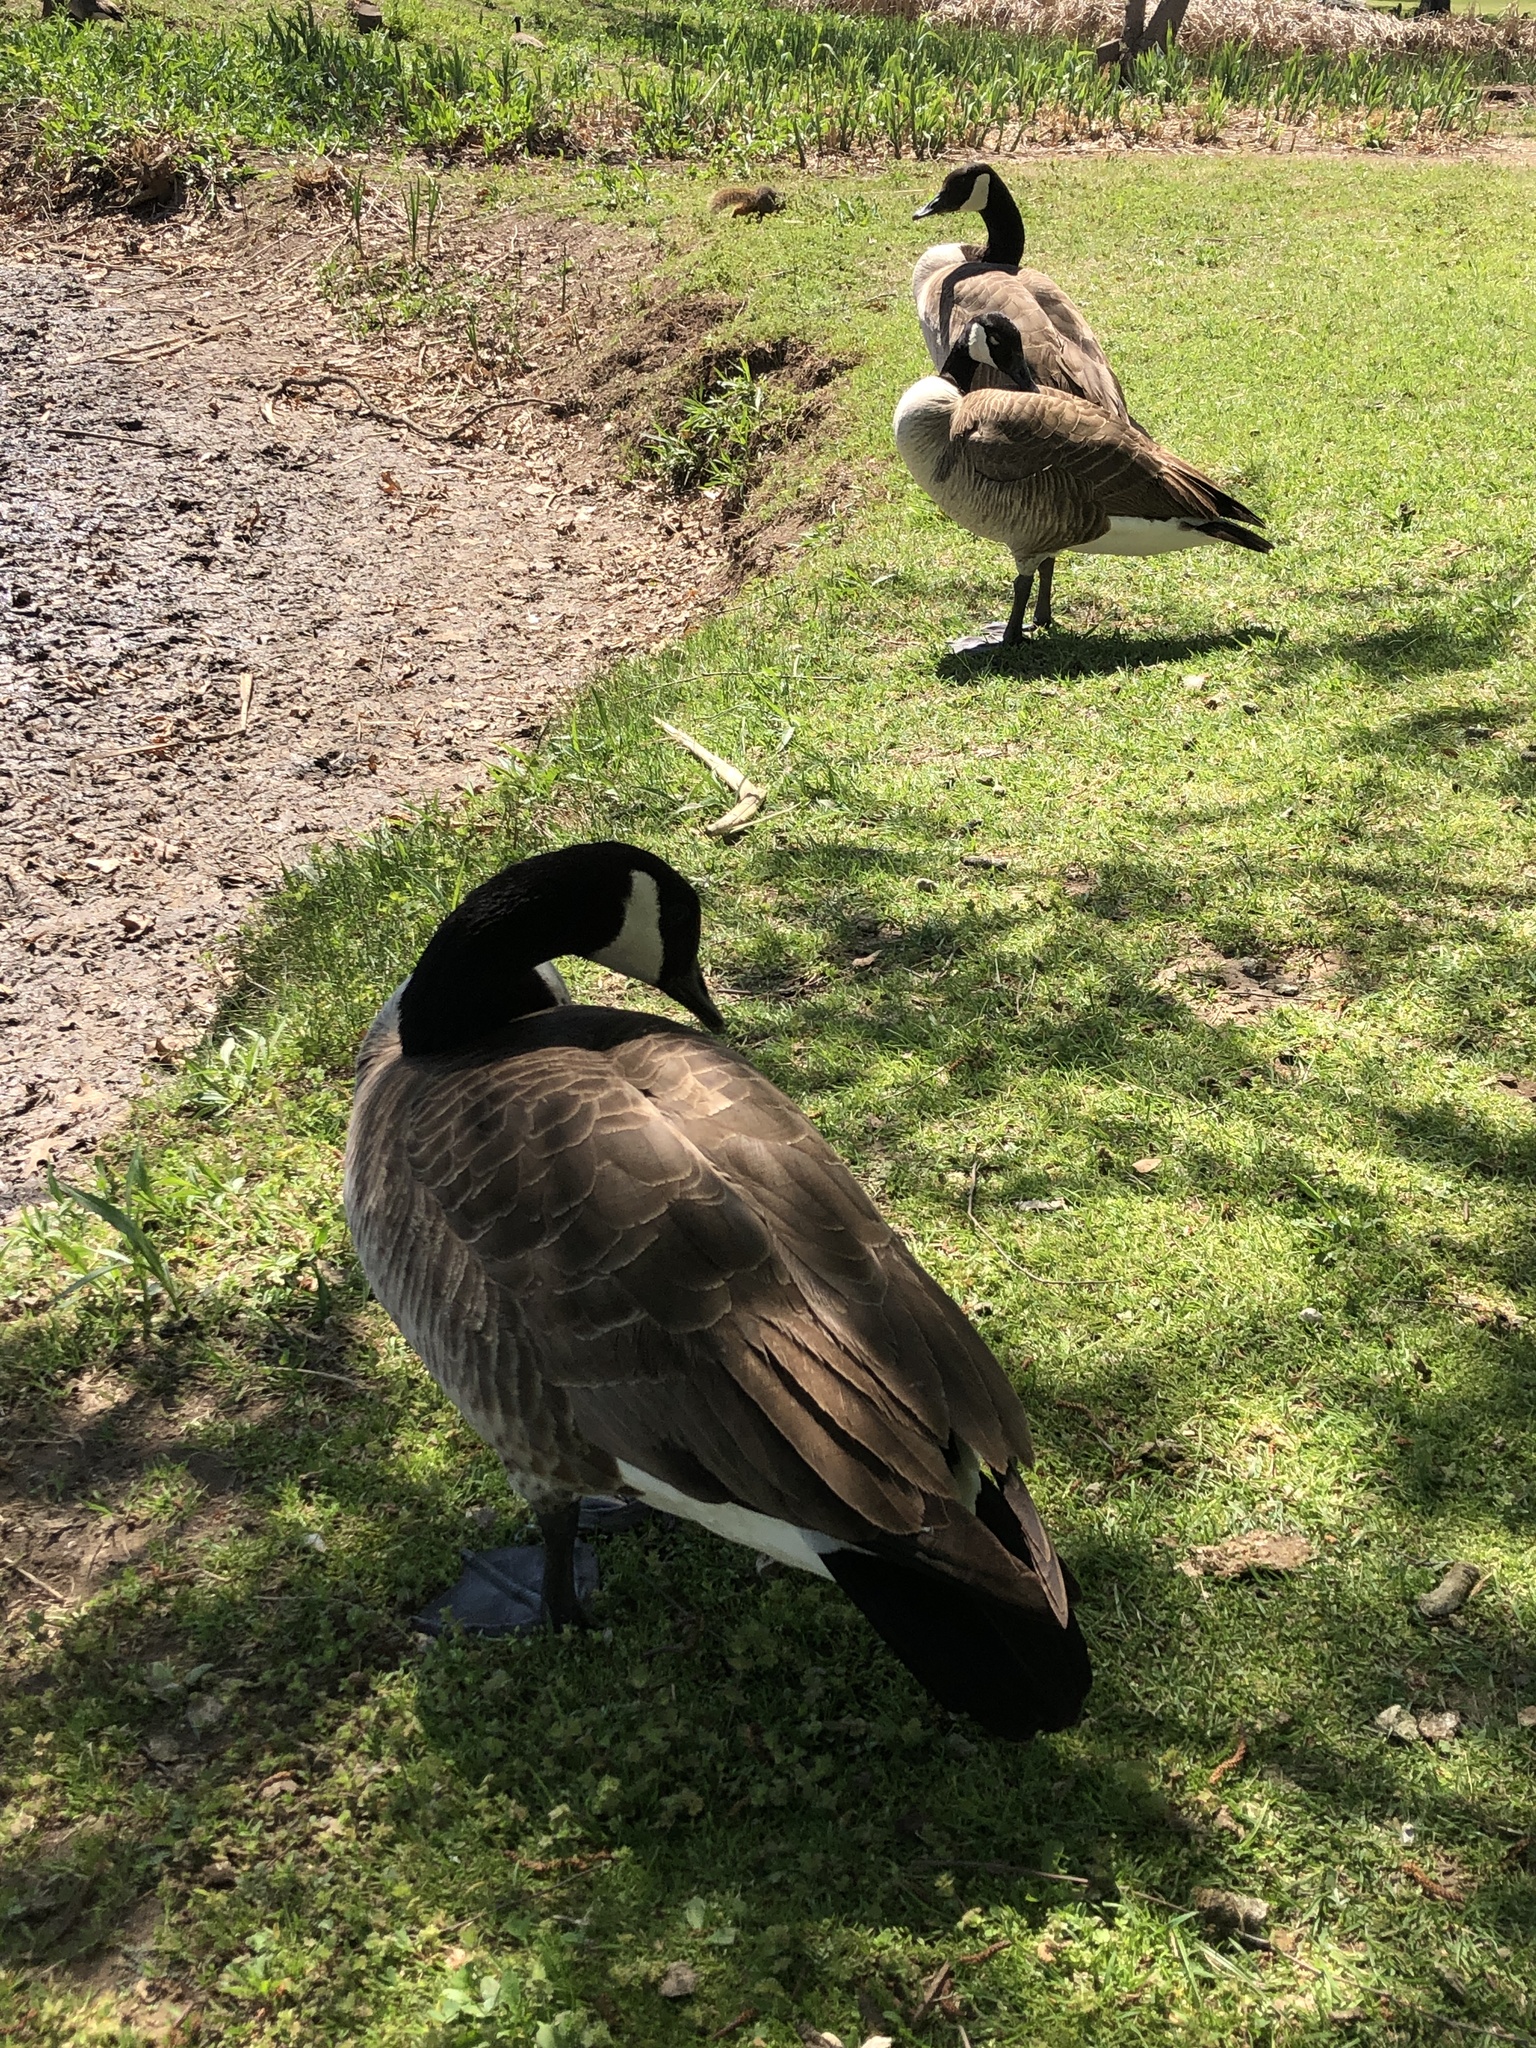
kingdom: Animalia
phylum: Chordata
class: Aves
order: Anseriformes
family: Anatidae
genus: Branta
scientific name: Branta canadensis
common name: Canada goose
